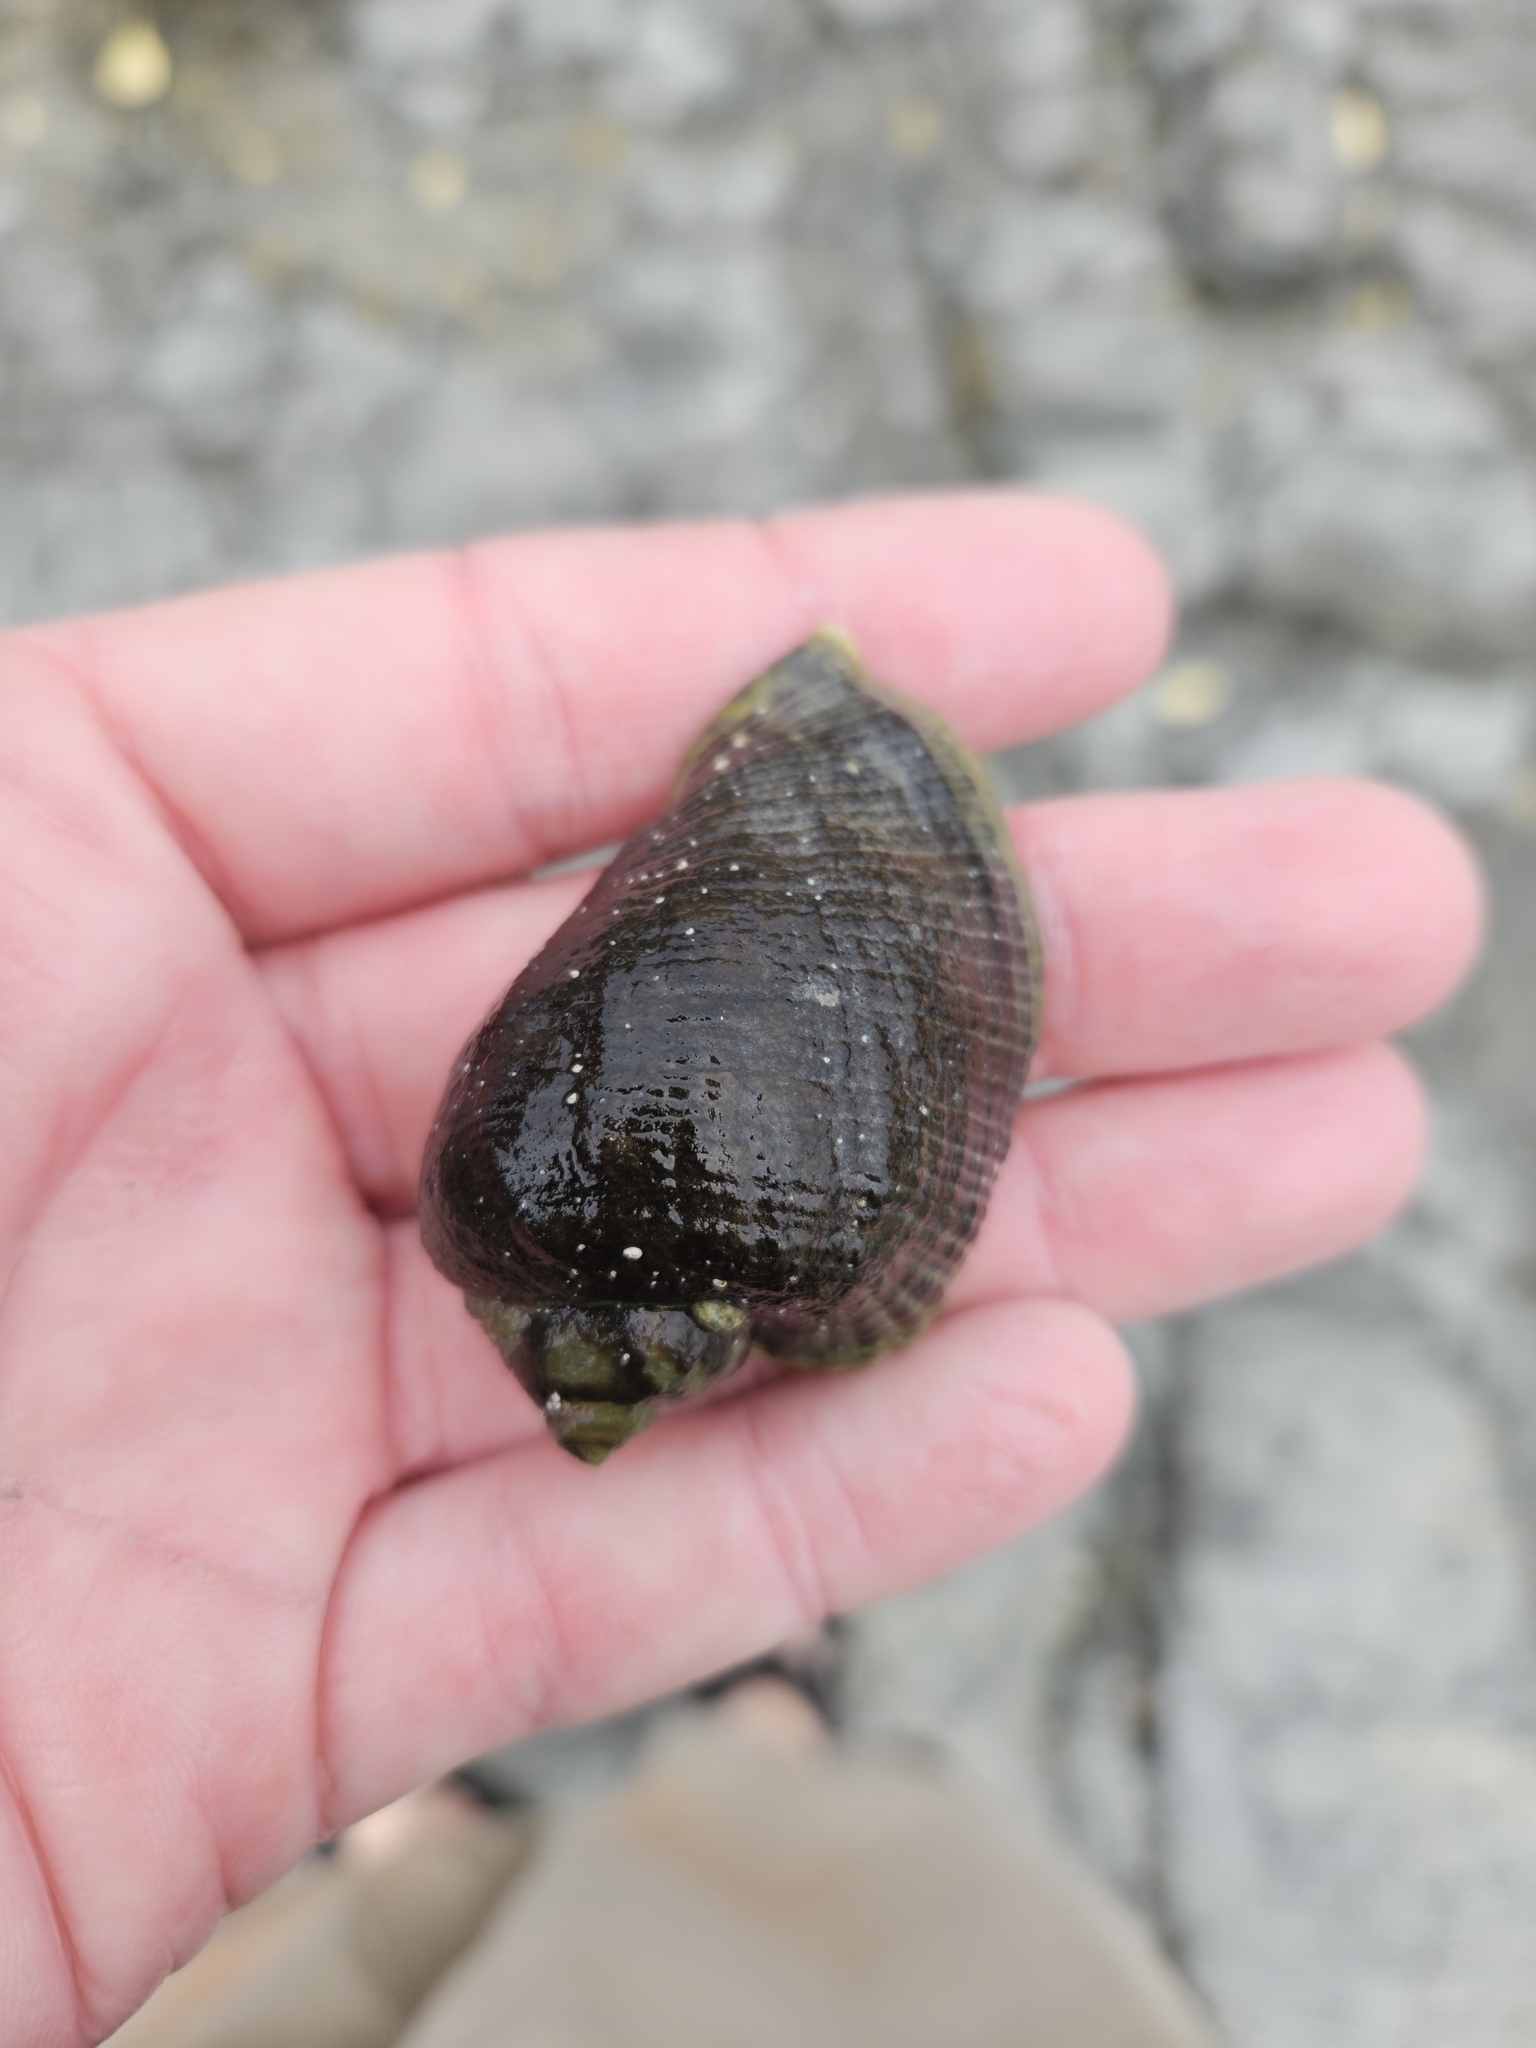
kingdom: Animalia
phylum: Mollusca
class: Gastropoda
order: Neogastropoda
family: Muricidae
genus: Haustrum
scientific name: Haustrum haustorium
